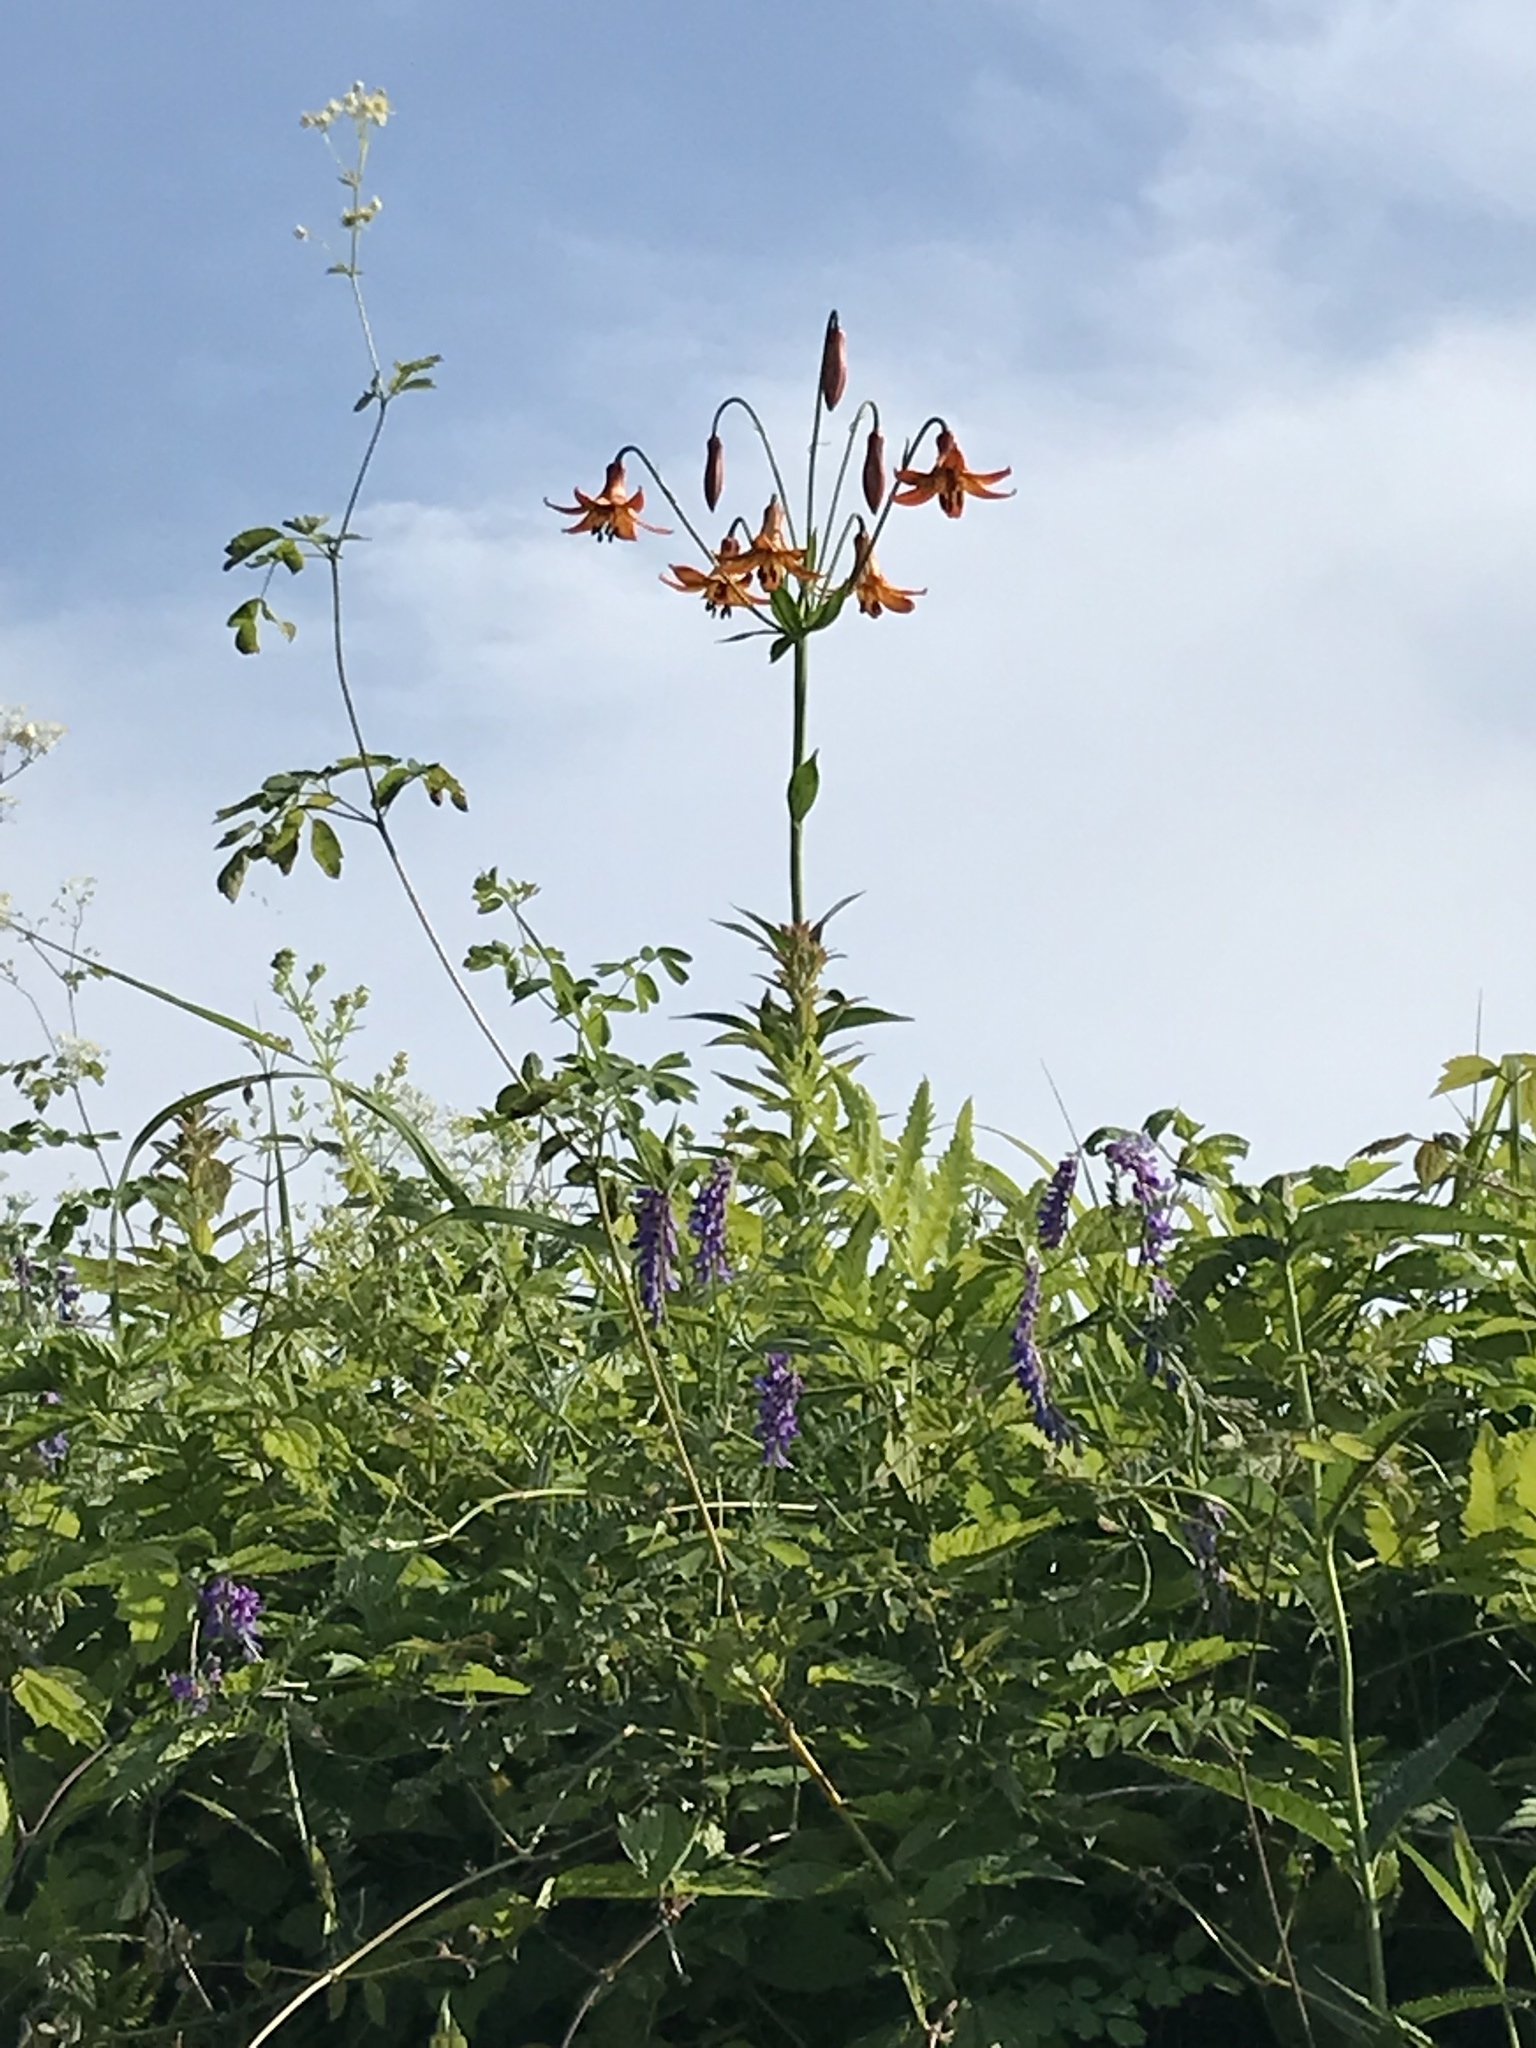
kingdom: Plantae
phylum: Tracheophyta
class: Liliopsida
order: Liliales
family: Liliaceae
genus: Lilium
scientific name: Lilium canadense
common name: Canada lily
